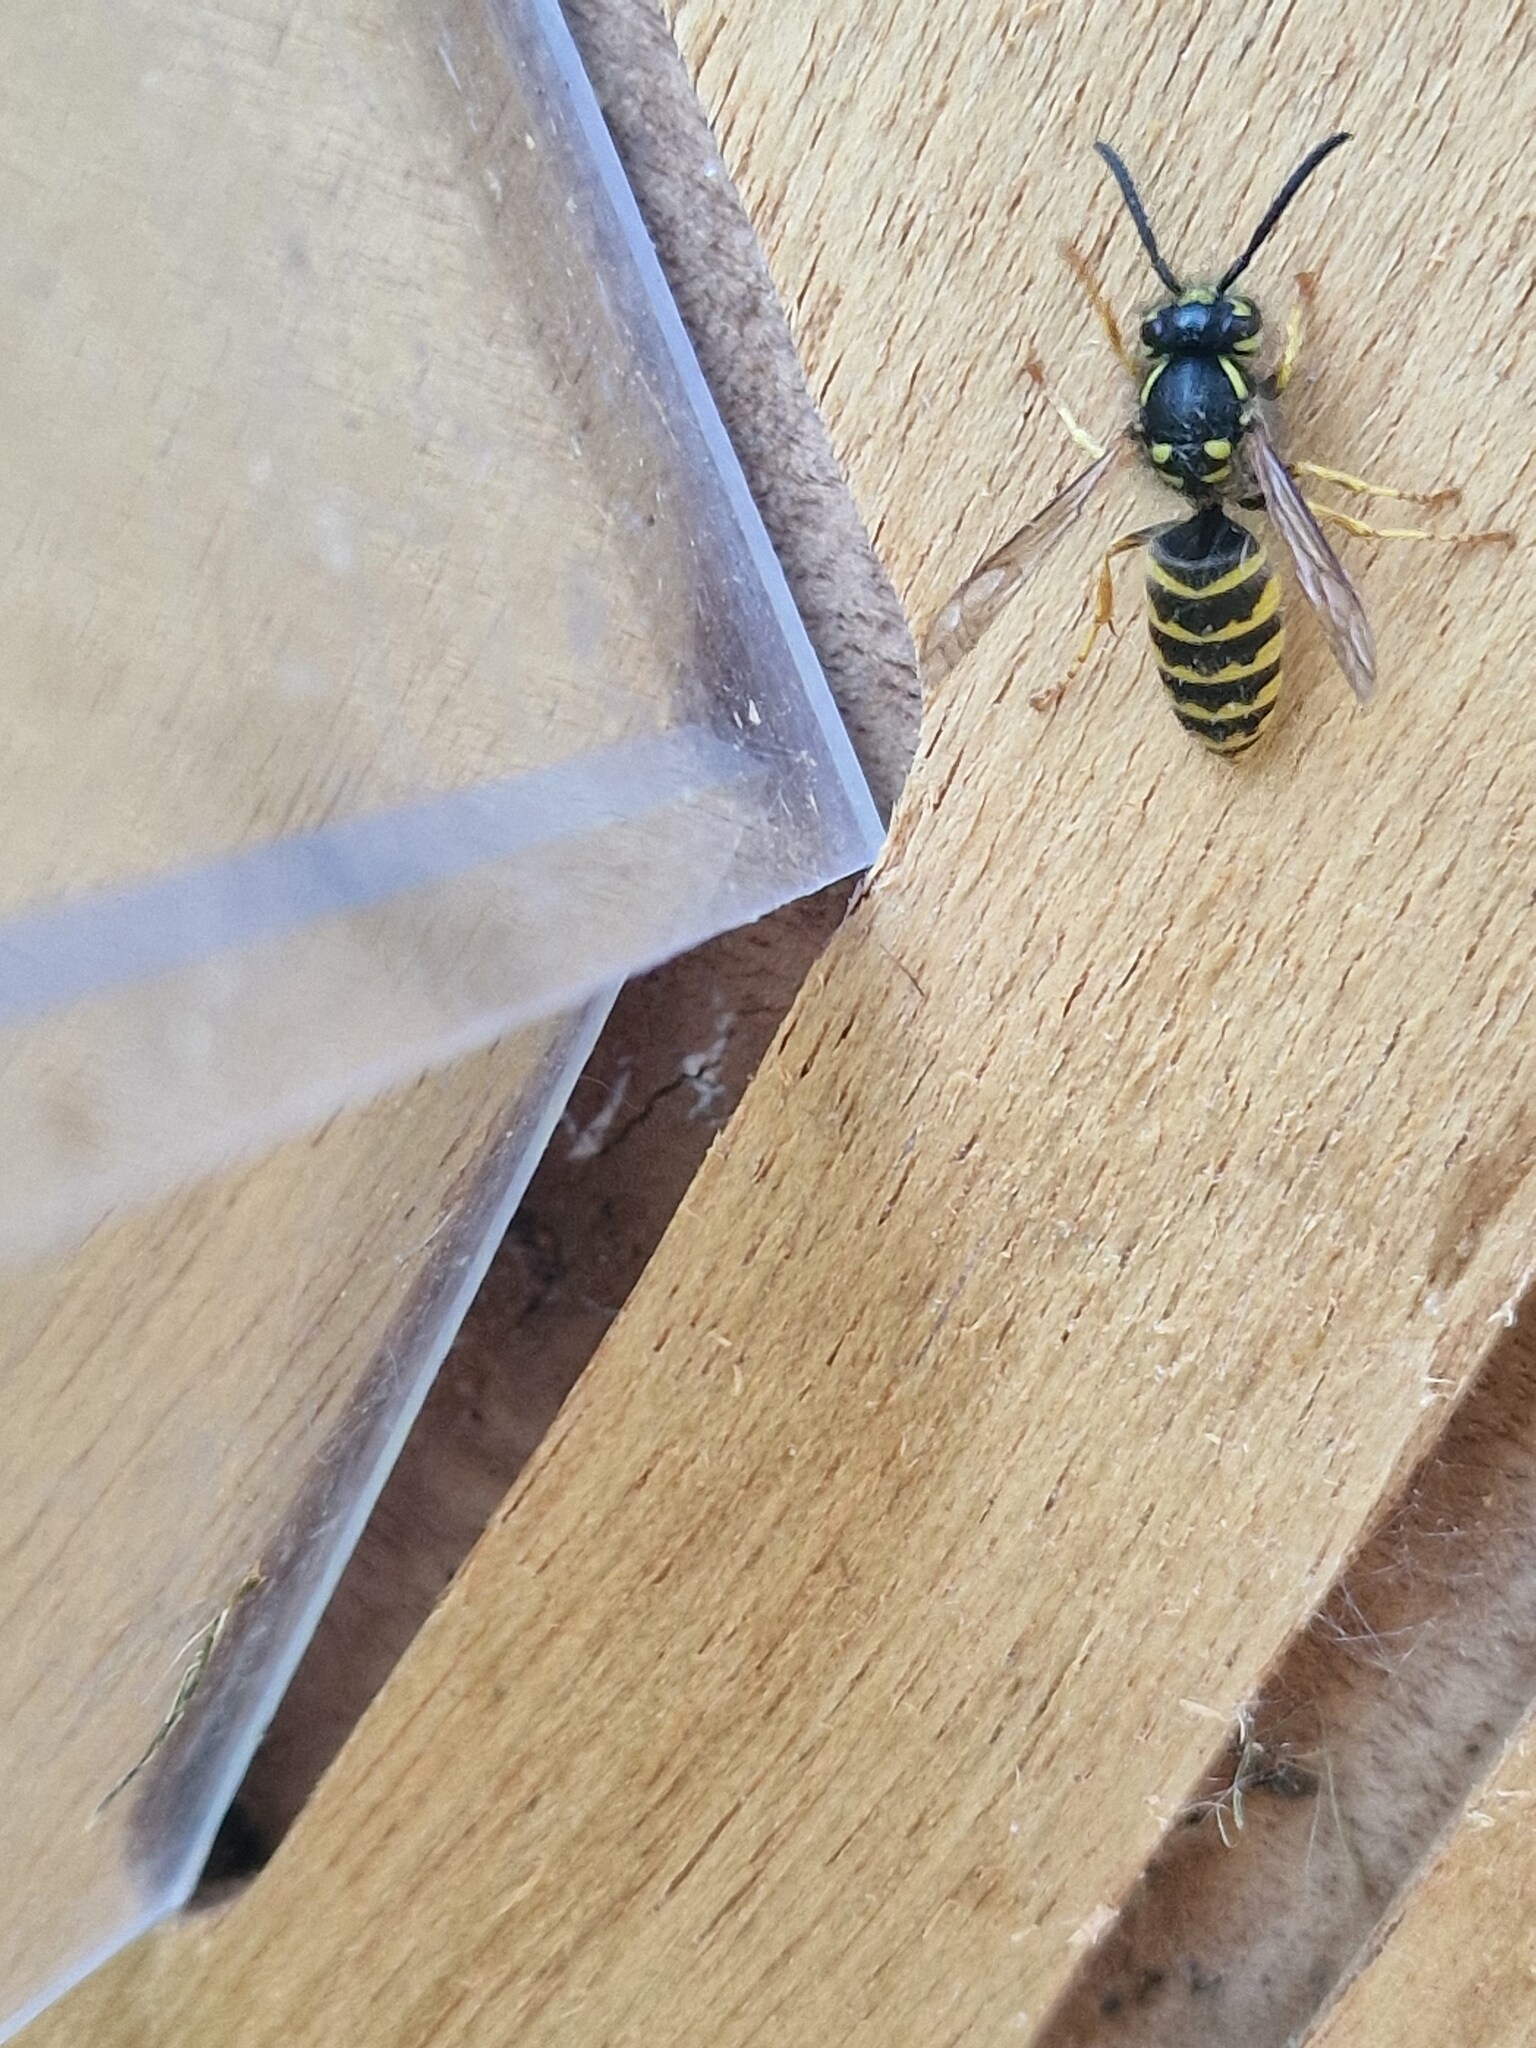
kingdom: Animalia
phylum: Arthropoda
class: Insecta
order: Hymenoptera
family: Vespidae
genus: Vespula
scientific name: Vespula vulgaris
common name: Common wasp
